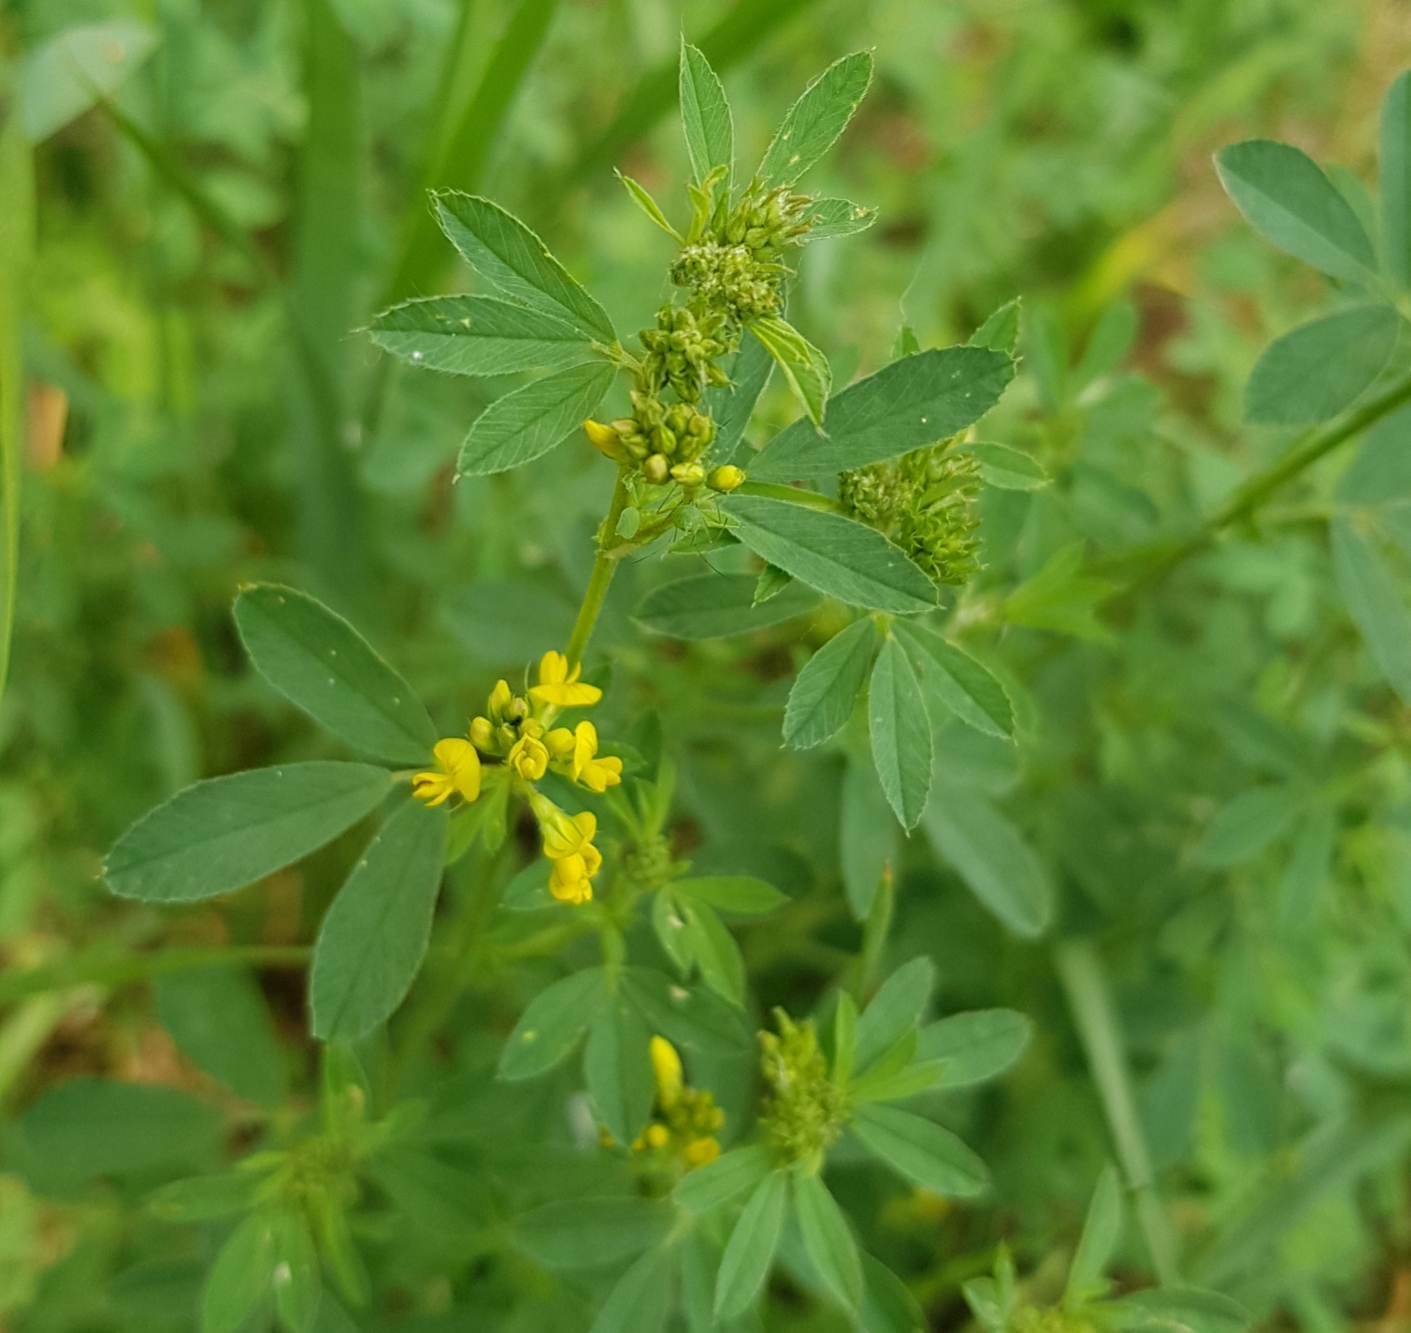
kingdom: Plantae
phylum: Tracheophyta
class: Magnoliopsida
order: Fabales
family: Fabaceae
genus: Medicago
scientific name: Medicago falcata
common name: Sickle medick
